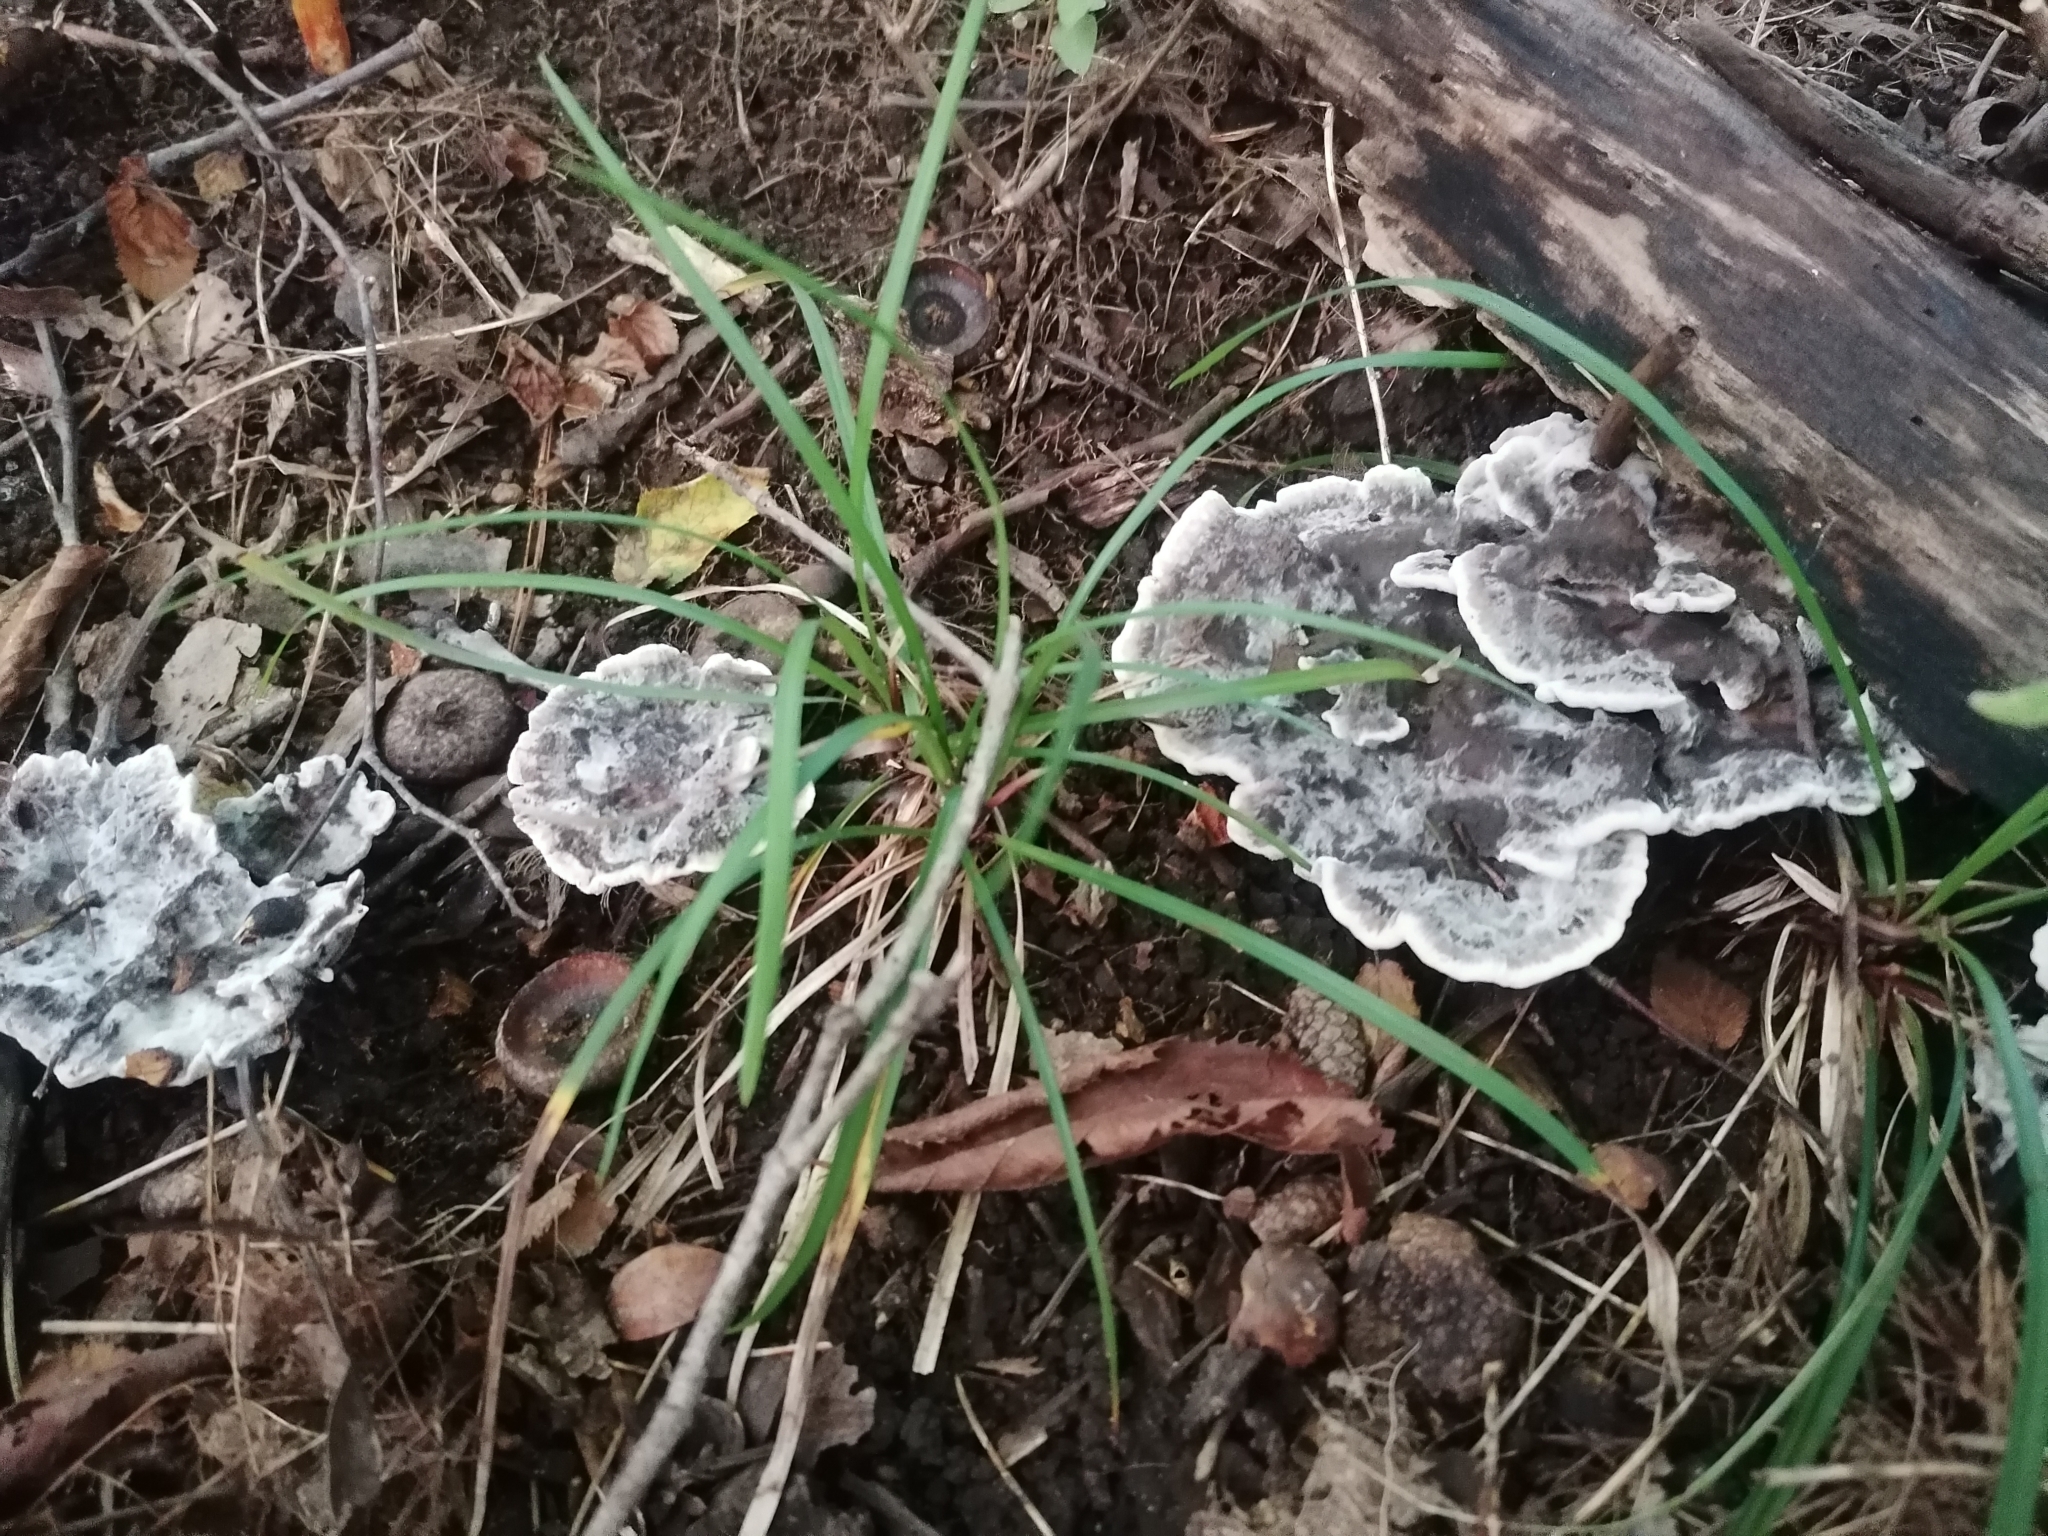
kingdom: Fungi
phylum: Basidiomycota
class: Agaricomycetes
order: Thelephorales
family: Thelephoraceae
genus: Phellodon
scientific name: Phellodon confluens
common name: Fused tooth
